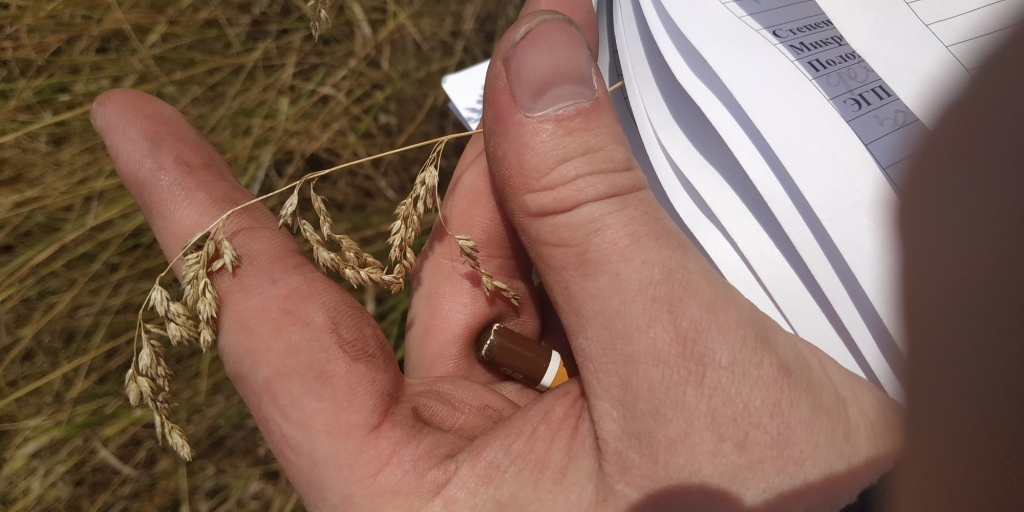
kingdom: Plantae
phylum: Tracheophyta
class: Liliopsida
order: Poales
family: Poaceae
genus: Poa
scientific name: Poa pratensis
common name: Kentucky bluegrass
